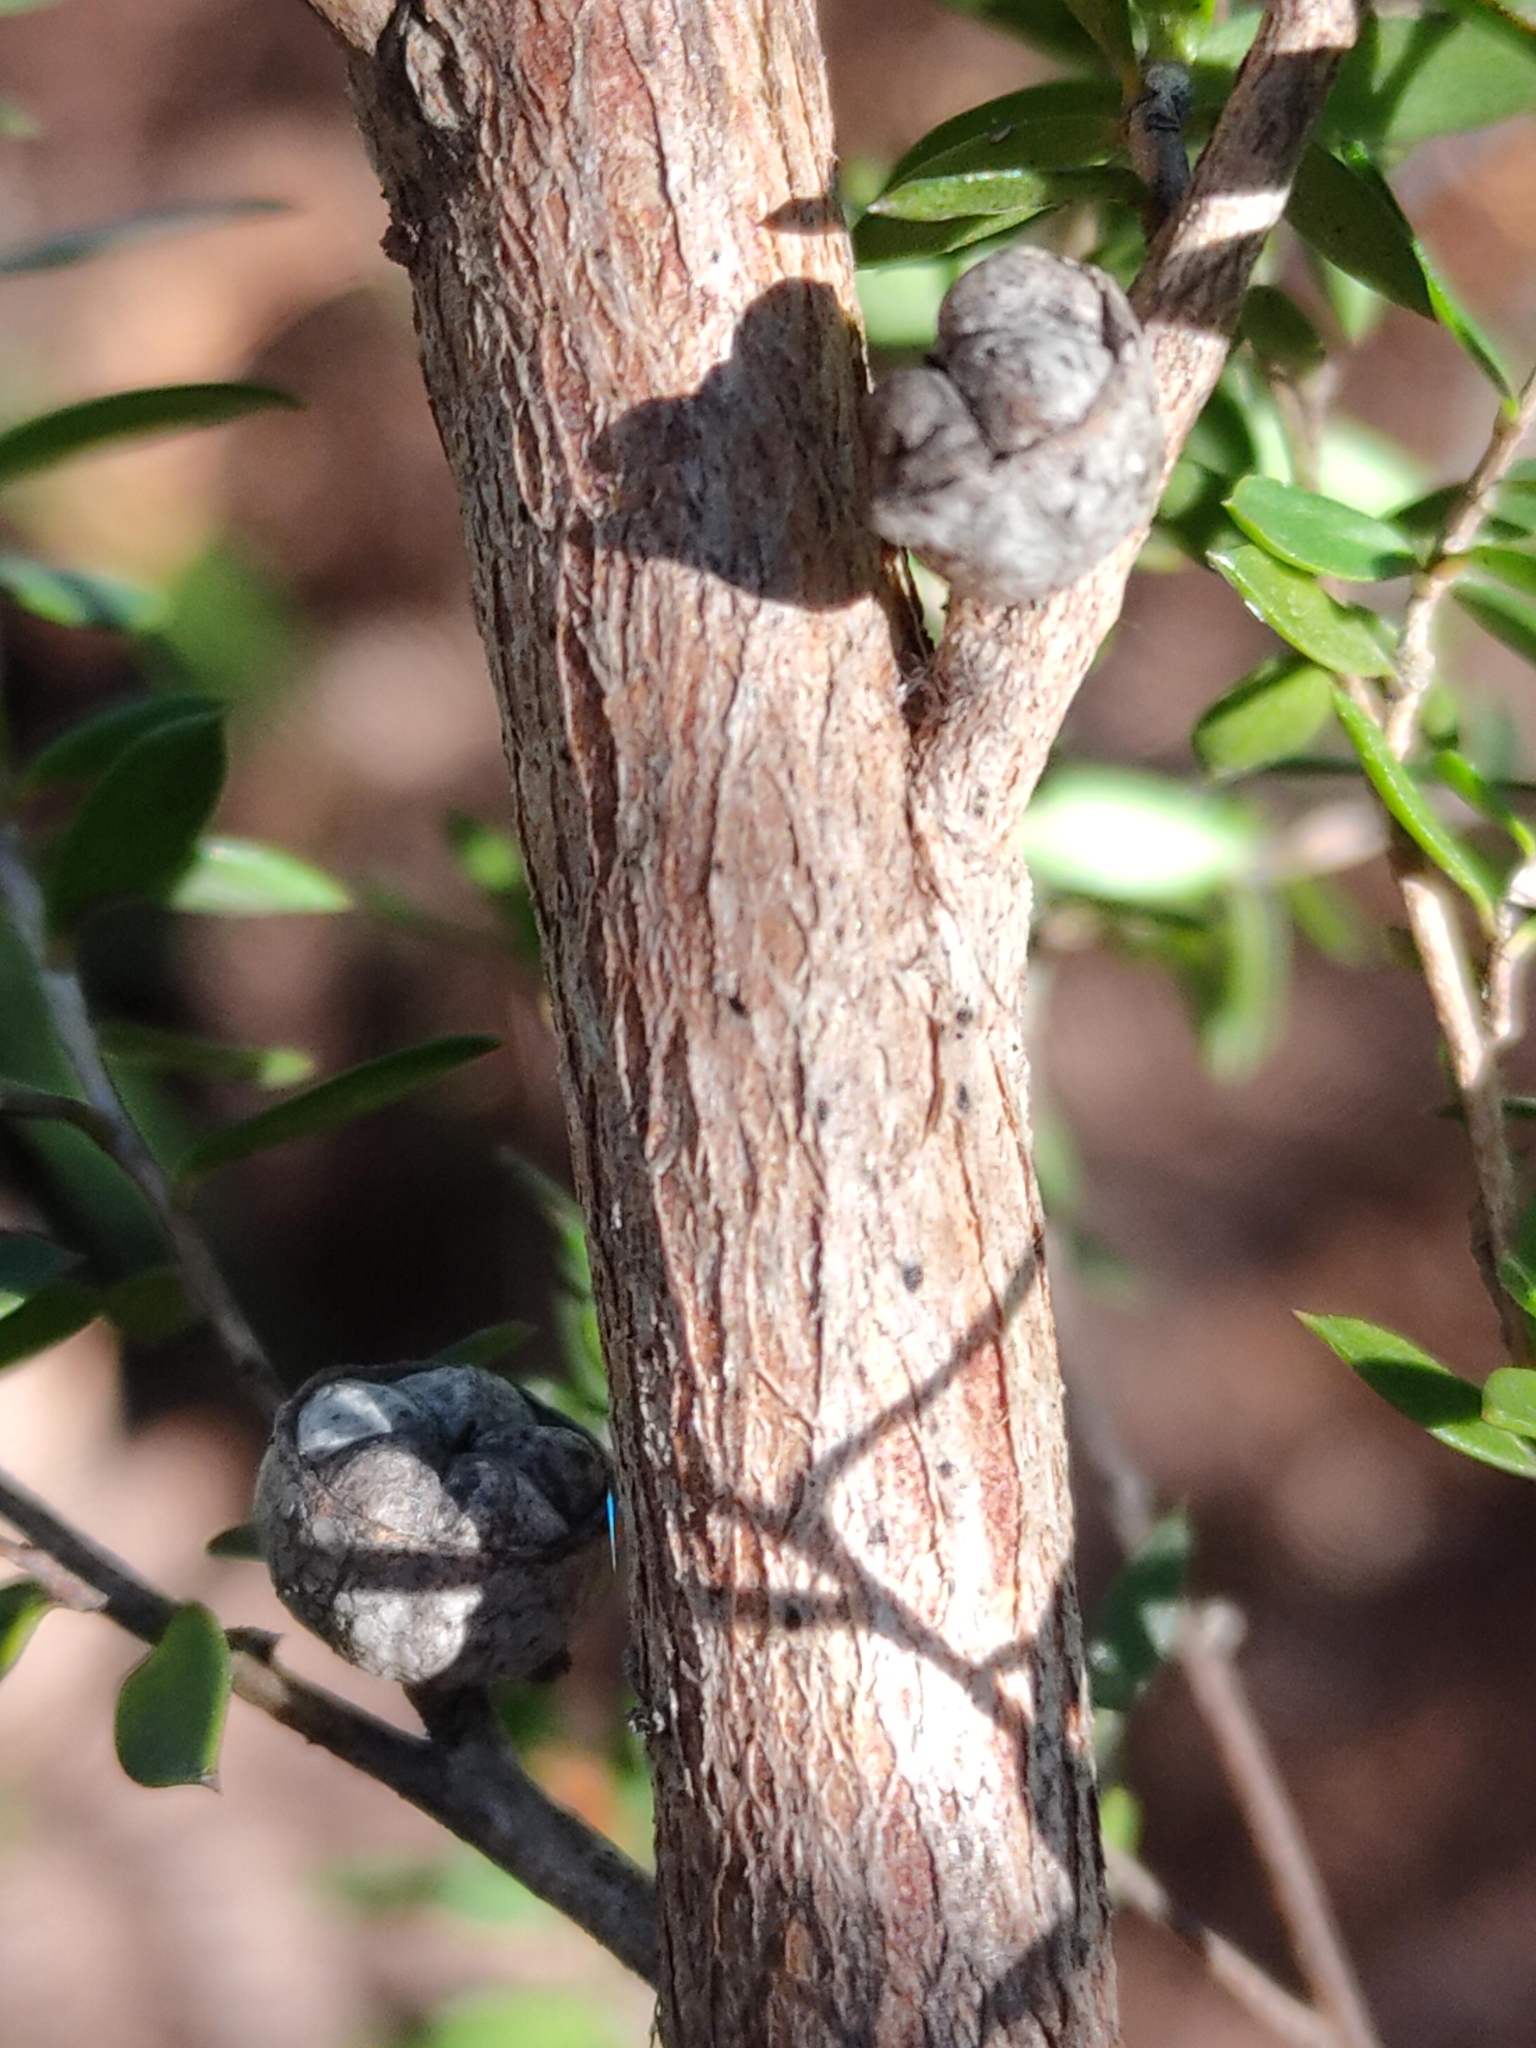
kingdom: Plantae
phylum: Tracheophyta
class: Magnoliopsida
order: Myrtales
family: Myrtaceae
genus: Leptospermum
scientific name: Leptospermum scoparium
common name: Broom tea-tree
